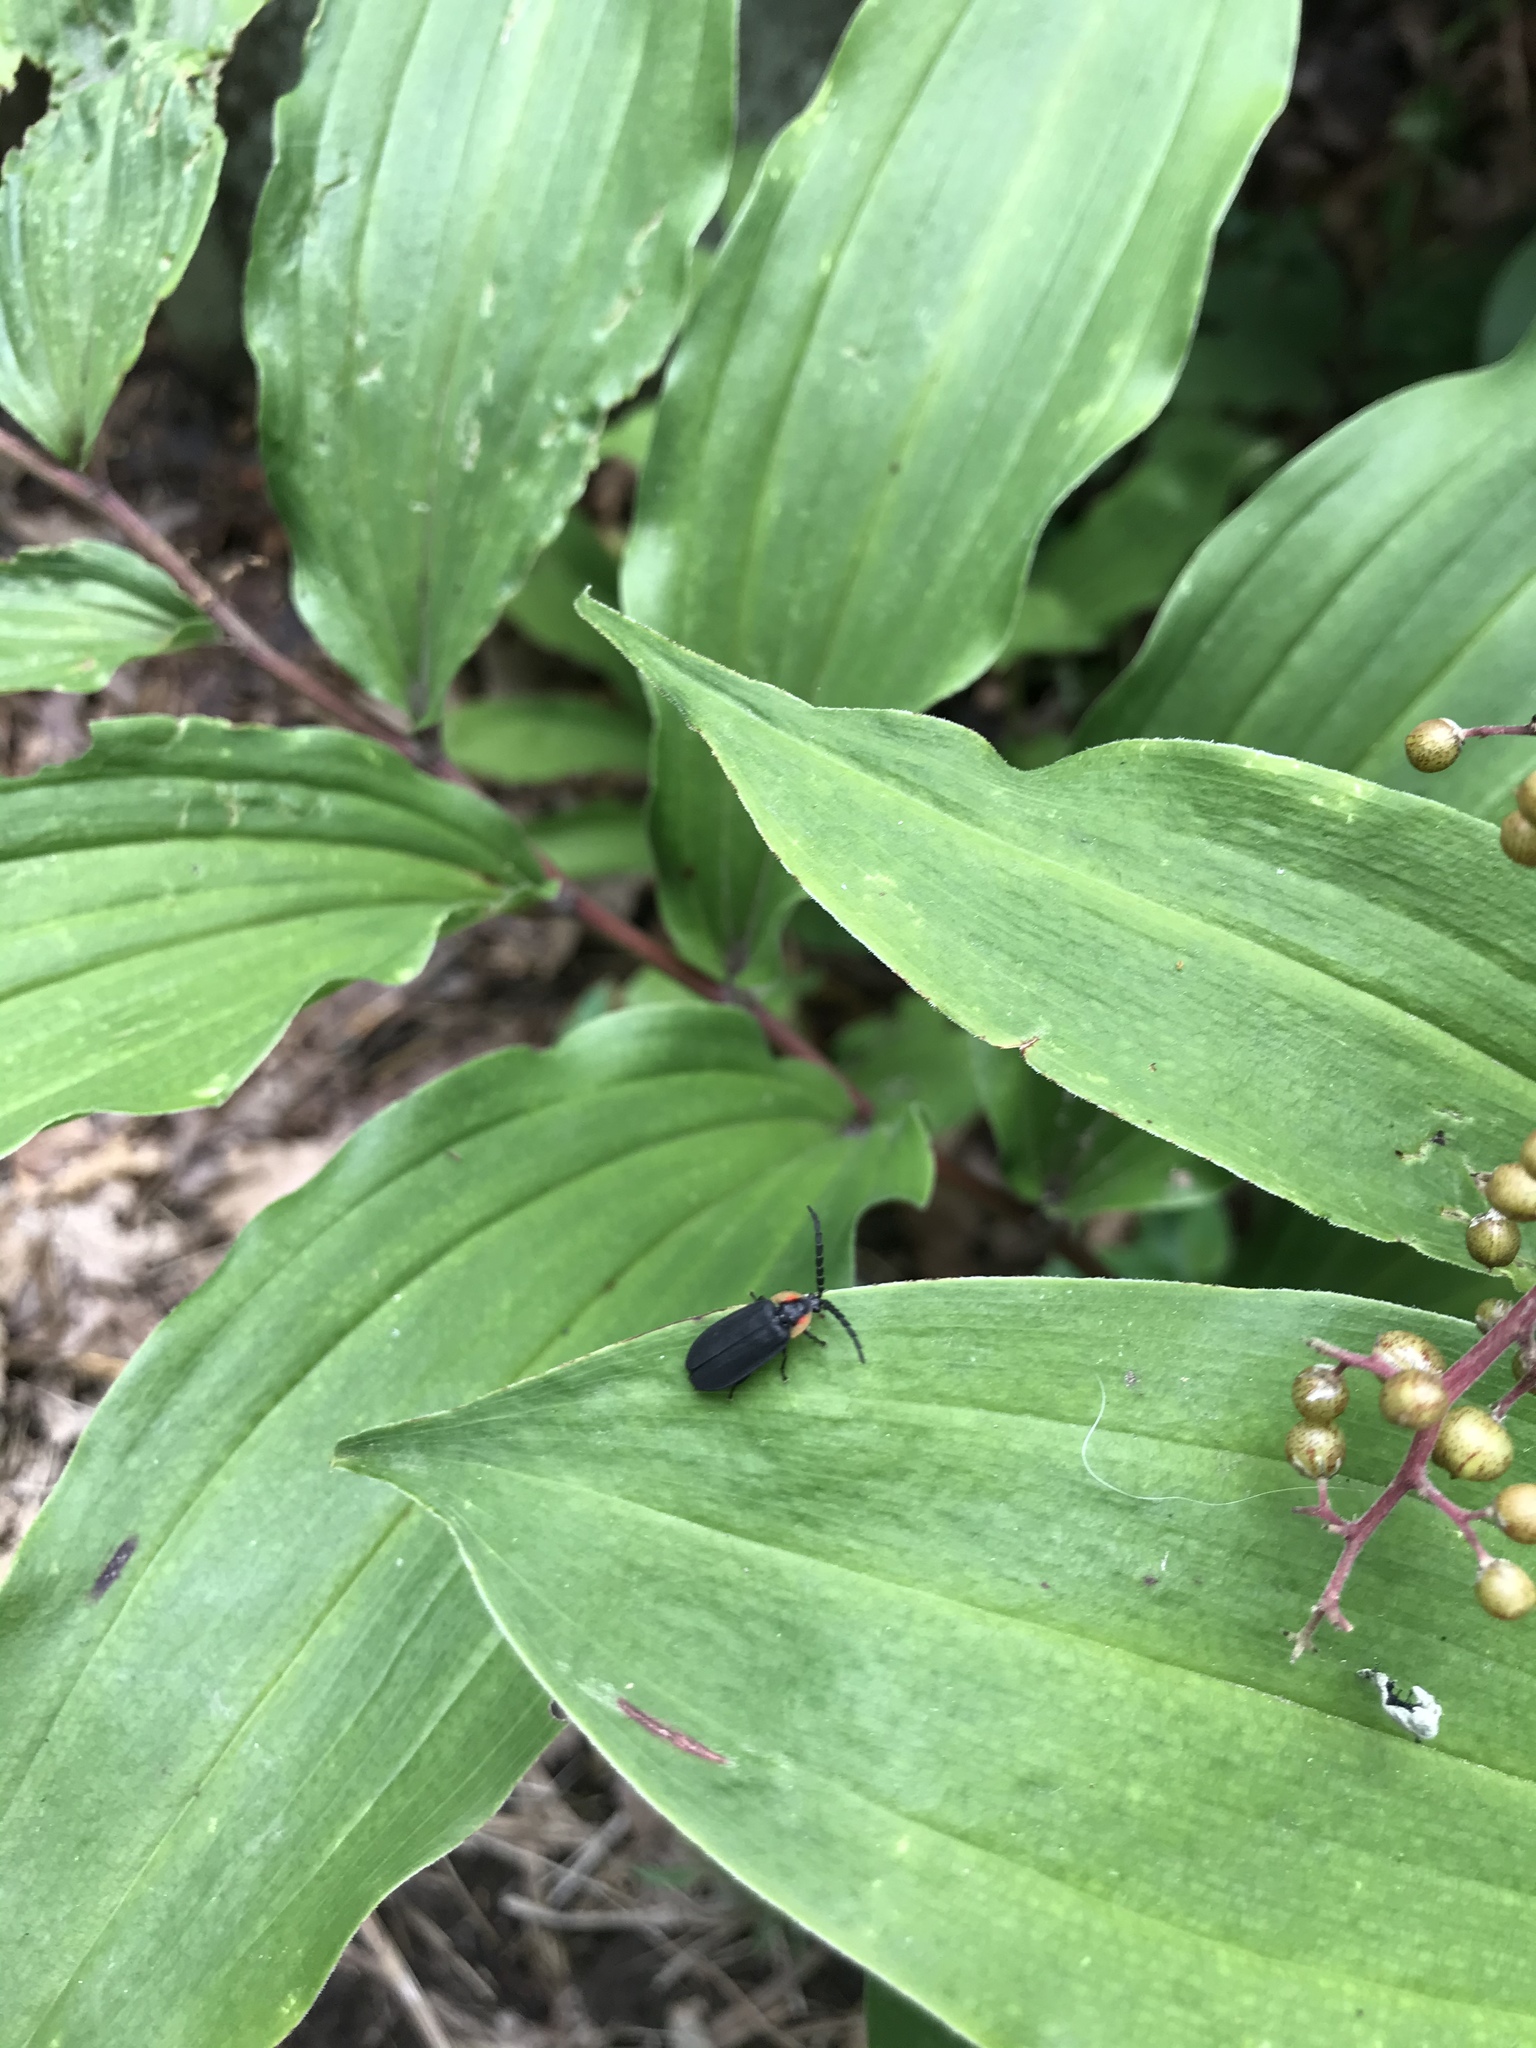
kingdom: Animalia
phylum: Arthropoda
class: Insecta
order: Coleoptera
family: Lampyridae
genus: Lucidota
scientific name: Lucidota atra
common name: Black firefly
